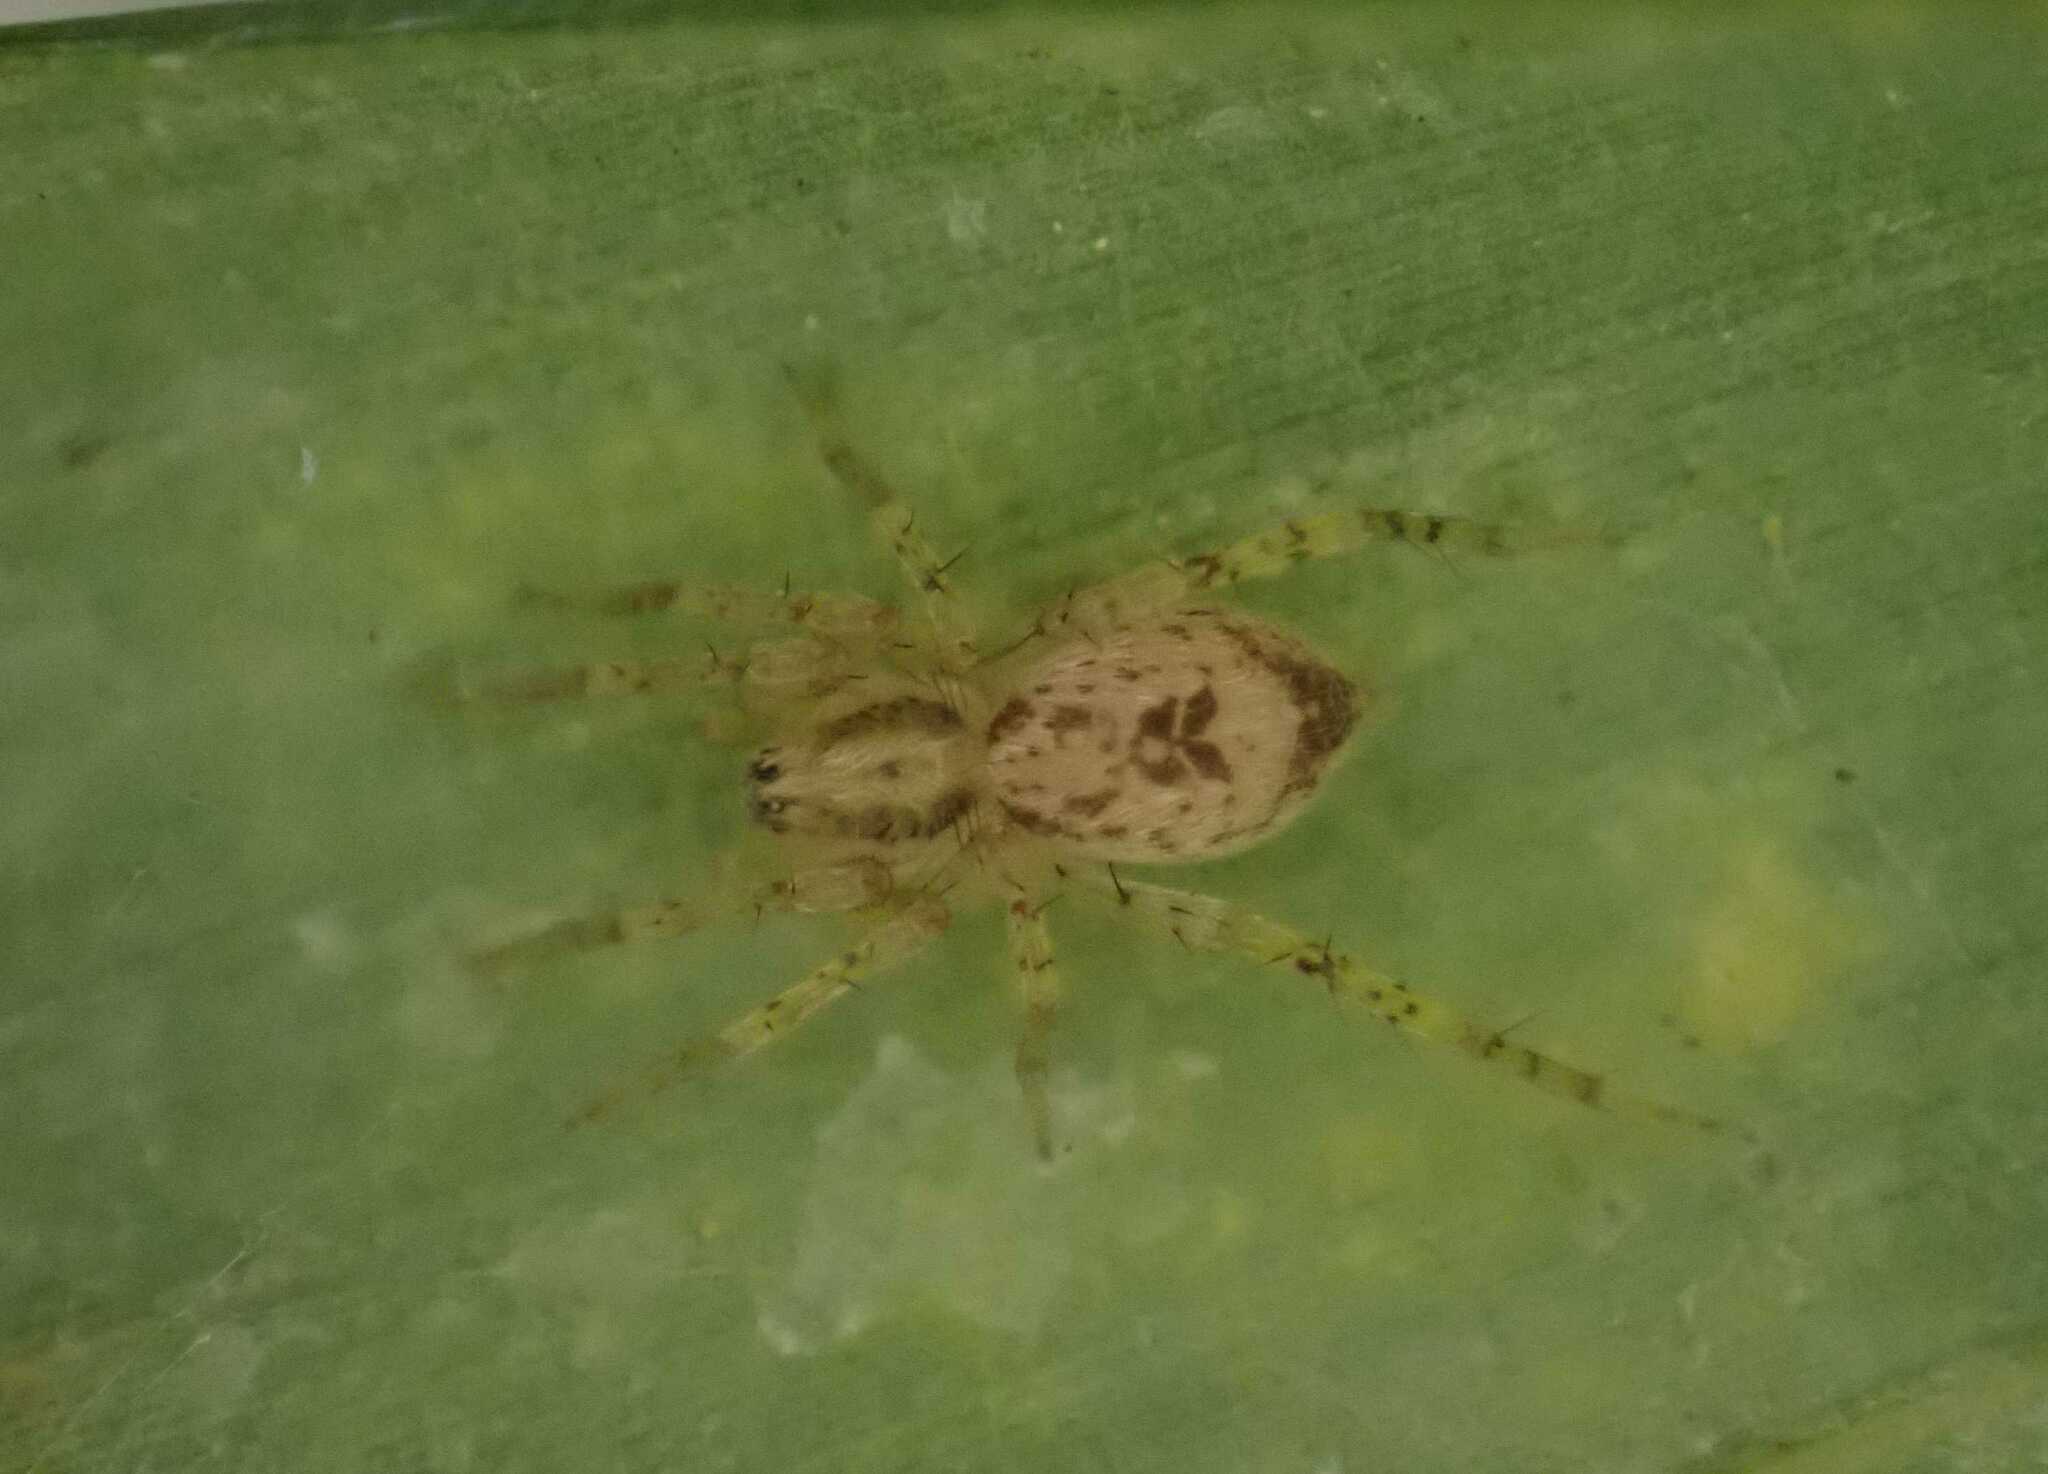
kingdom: Animalia
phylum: Arthropoda
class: Arachnida
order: Araneae
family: Anyphaenidae
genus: Anyphaena
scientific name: Anyphaena accentuata
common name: Buzzing spider
